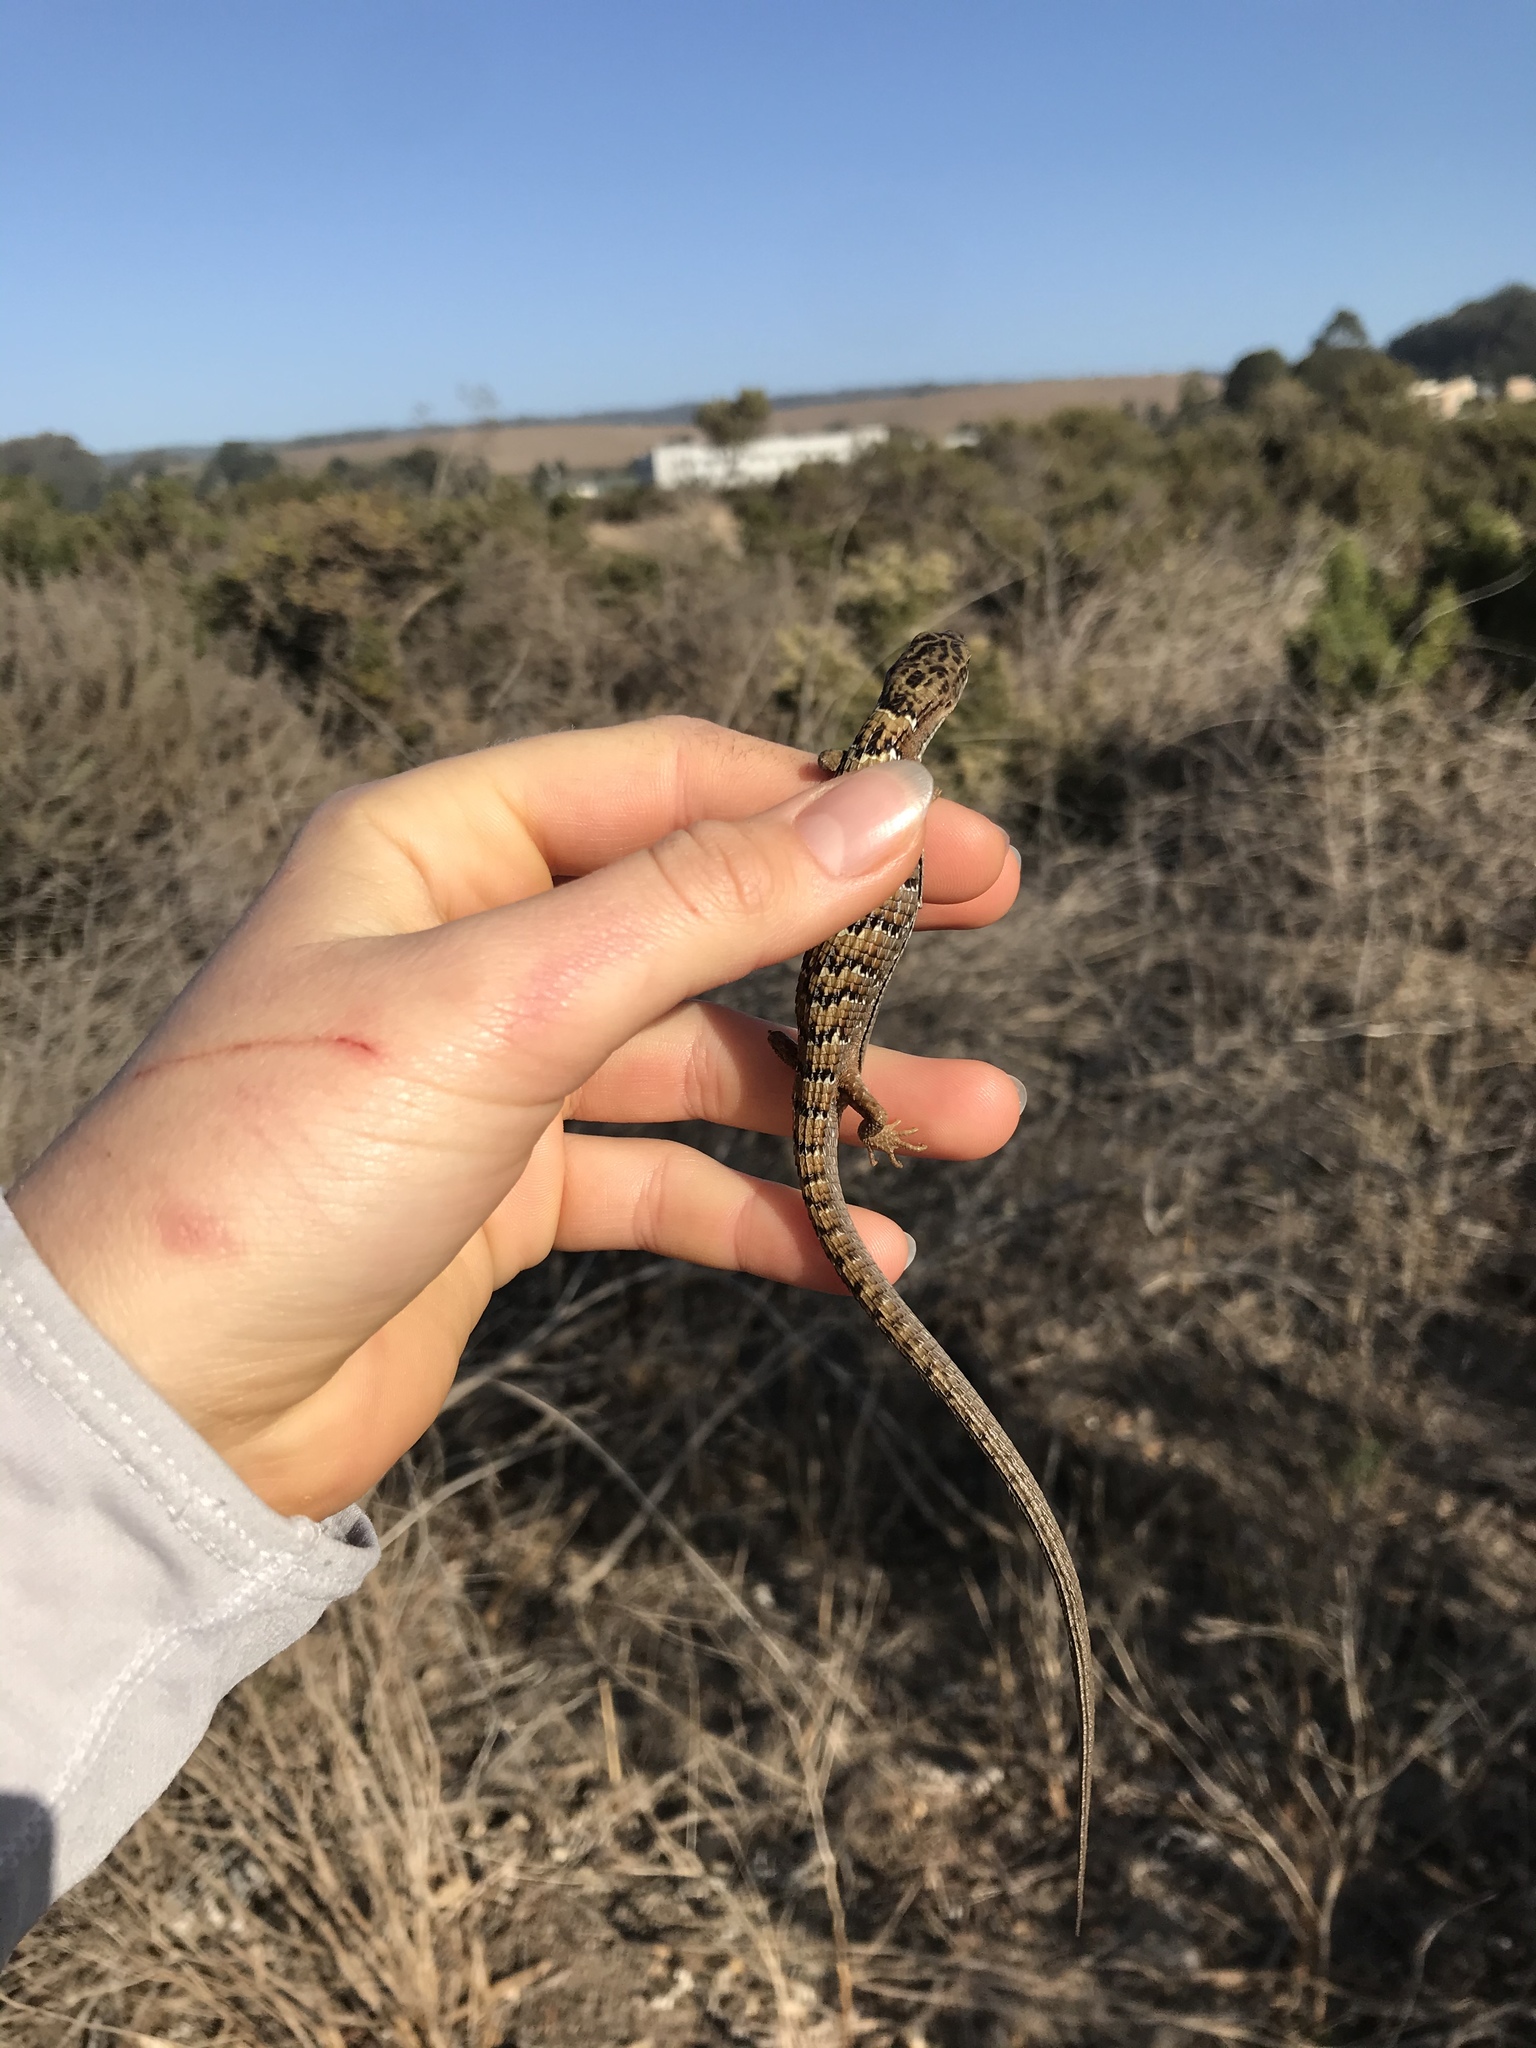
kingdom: Animalia
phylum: Chordata
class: Squamata
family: Anguidae
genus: Elgaria
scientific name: Elgaria multicarinata
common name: Southern alligator lizard
